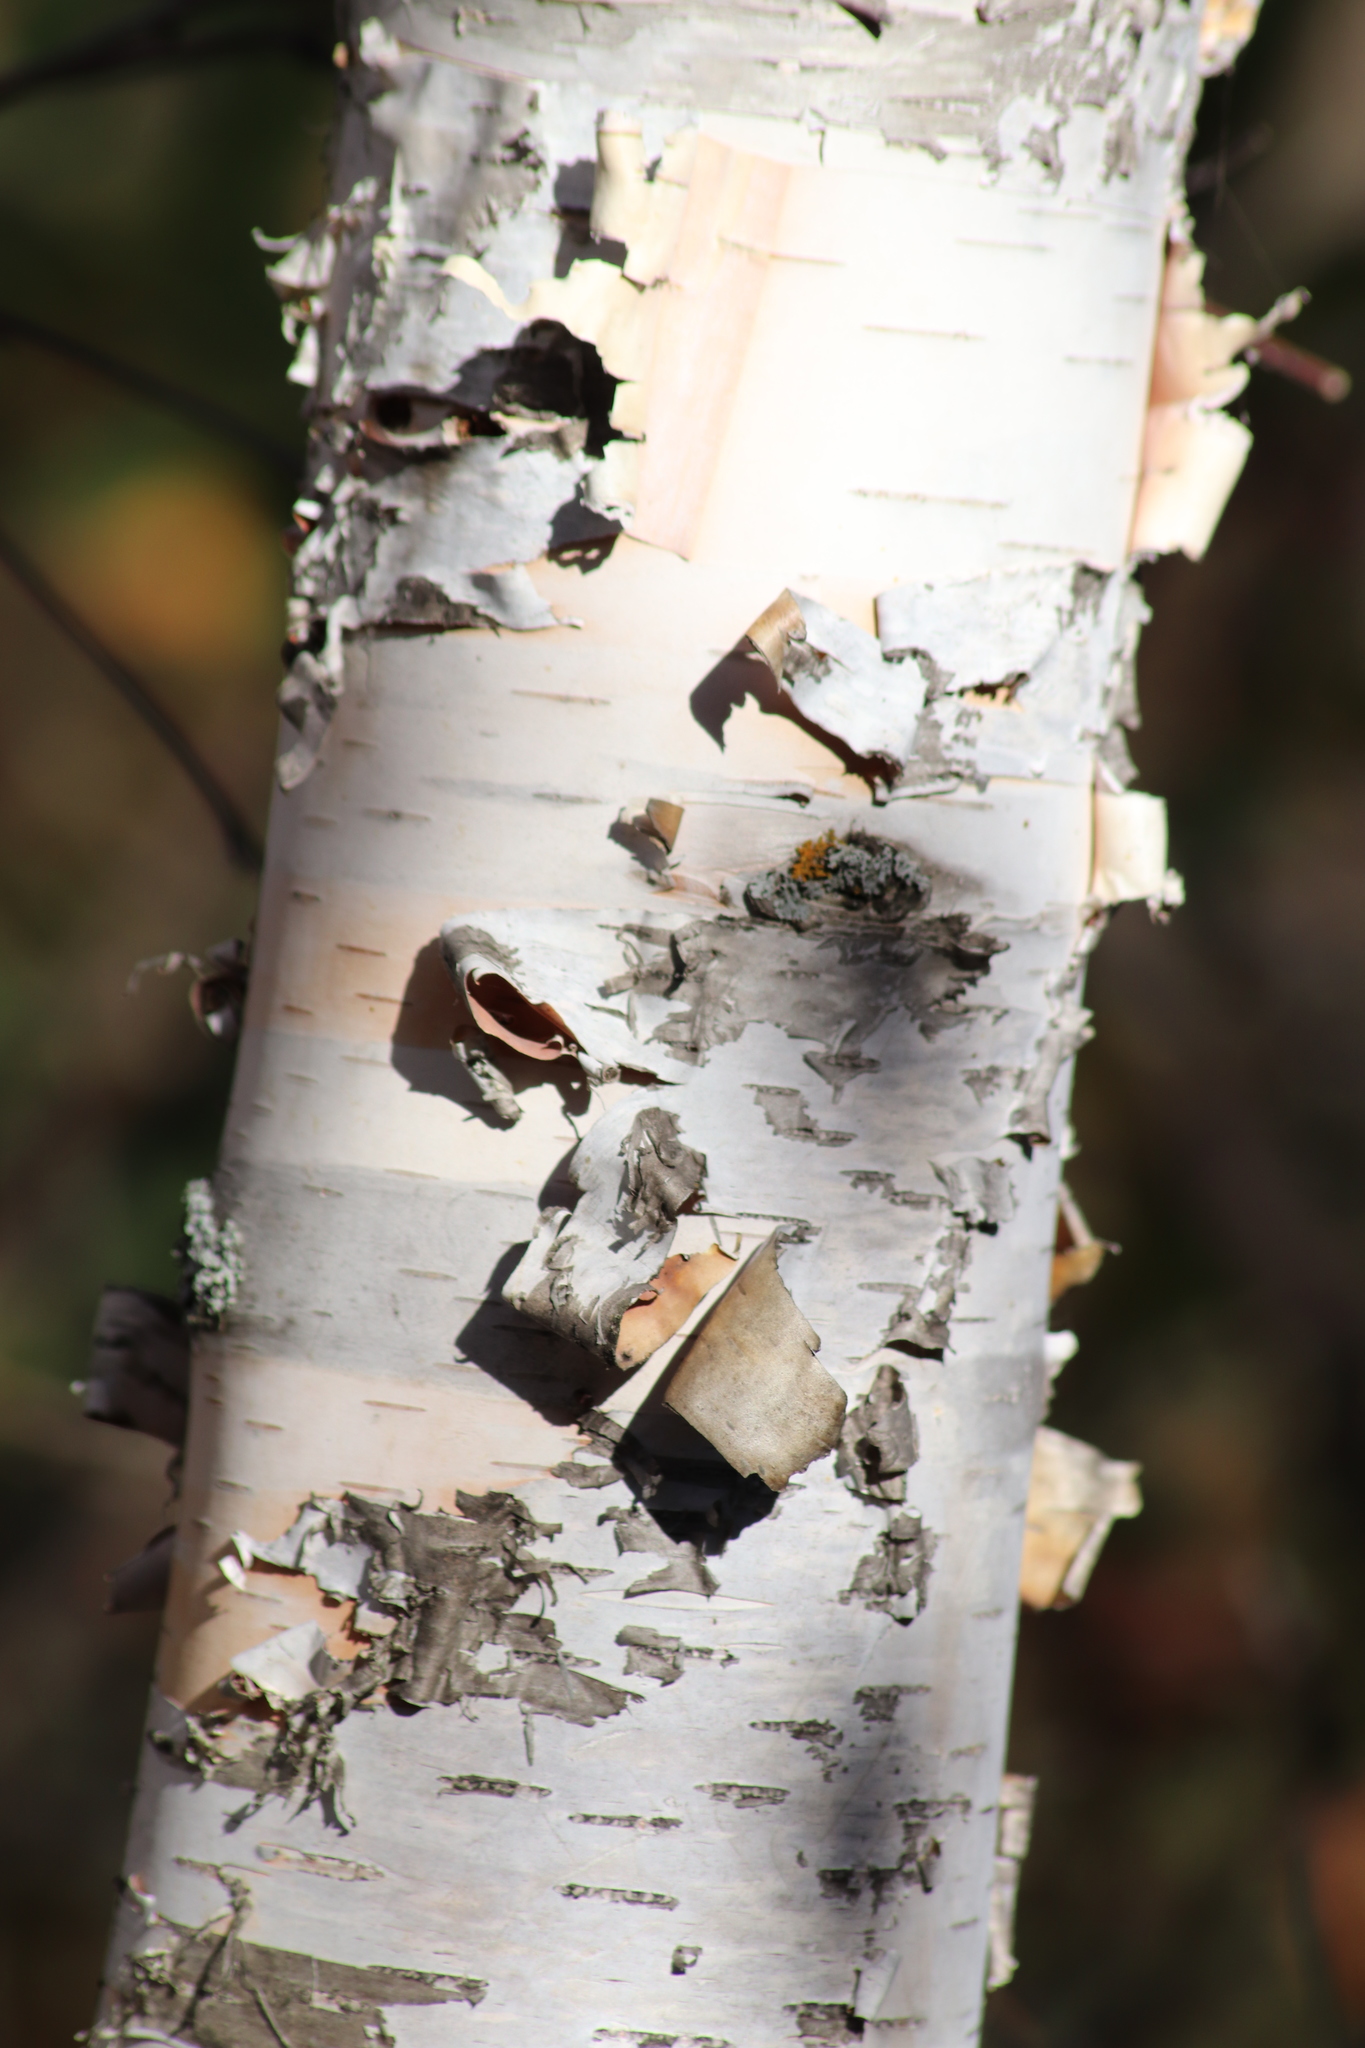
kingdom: Plantae
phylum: Tracheophyta
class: Magnoliopsida
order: Fagales
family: Betulaceae
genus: Betula
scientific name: Betula papyrifera
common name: Paper birch
